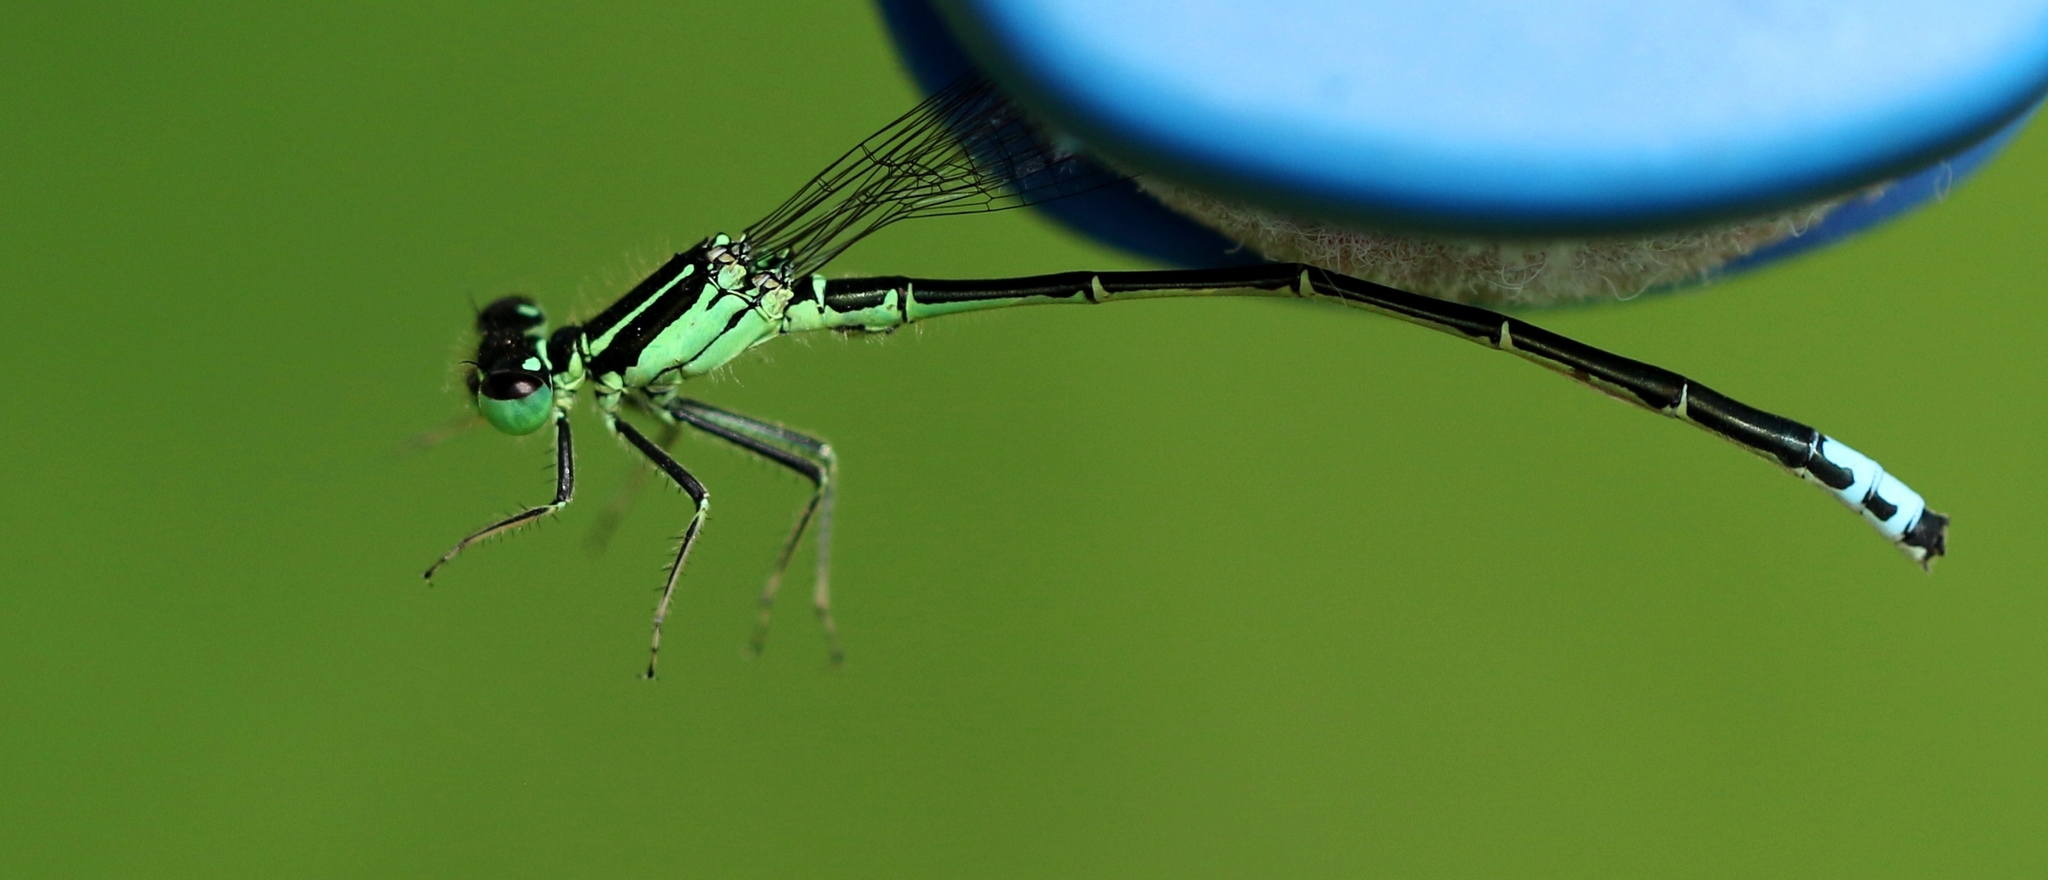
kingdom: Animalia
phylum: Arthropoda
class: Insecta
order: Odonata
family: Coenagrionidae
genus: Ischnura
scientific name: Ischnura verticalis
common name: Eastern forktail
